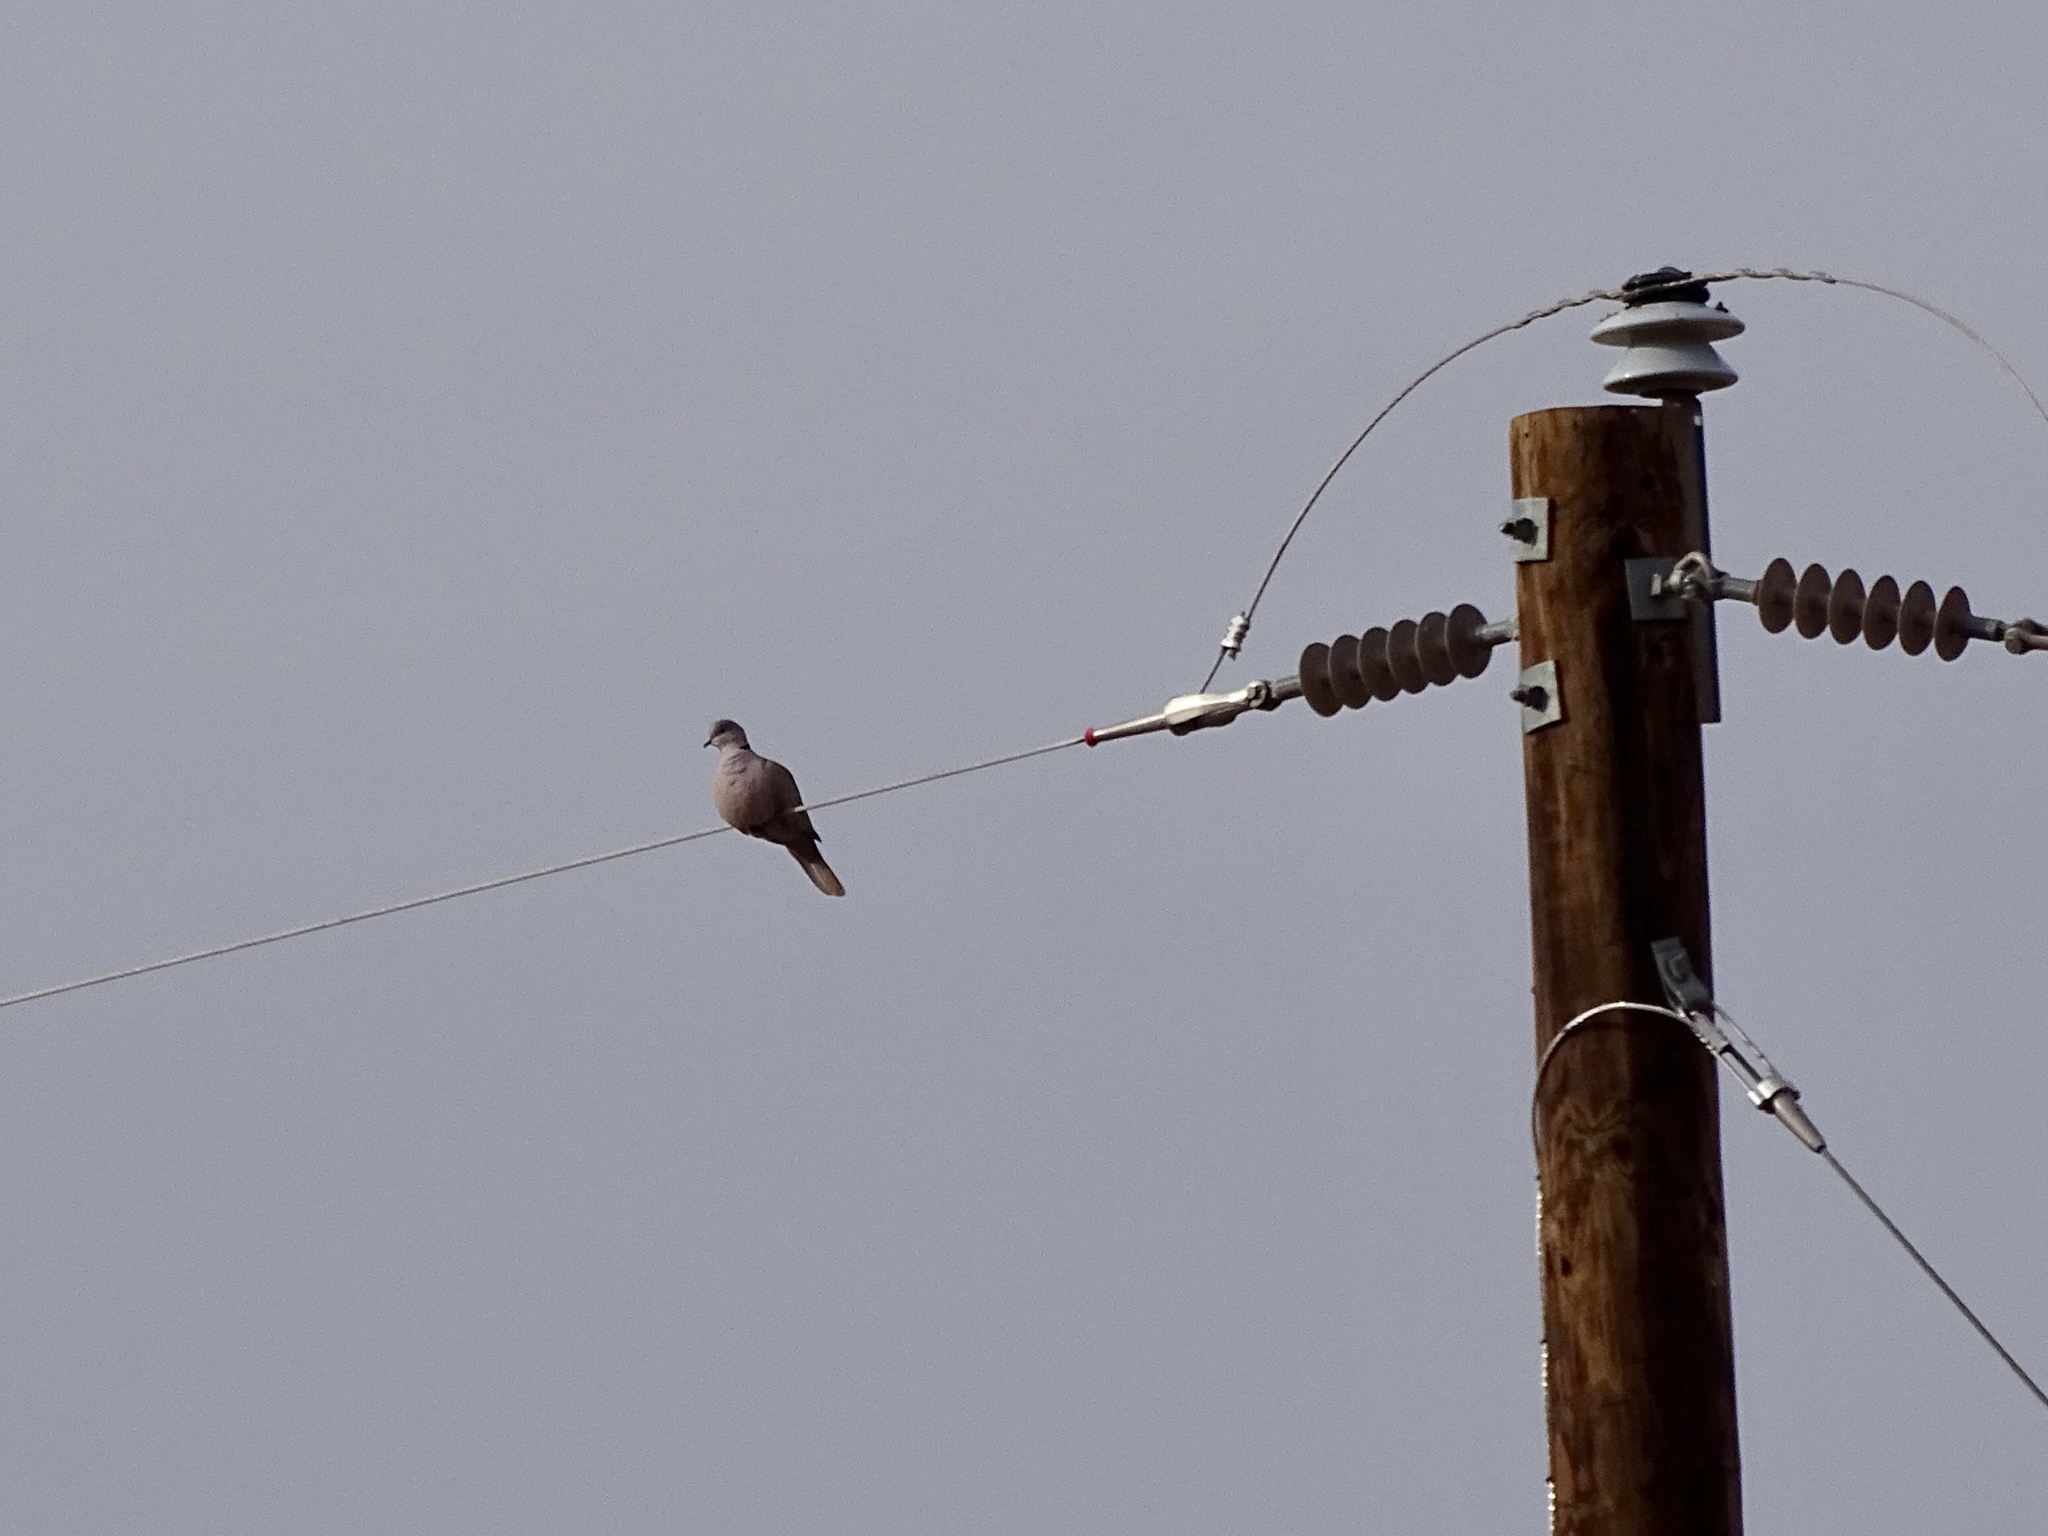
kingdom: Animalia
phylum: Chordata
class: Aves
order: Columbiformes
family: Columbidae
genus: Streptopelia
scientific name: Streptopelia decaocto
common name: Eurasian collared dove
